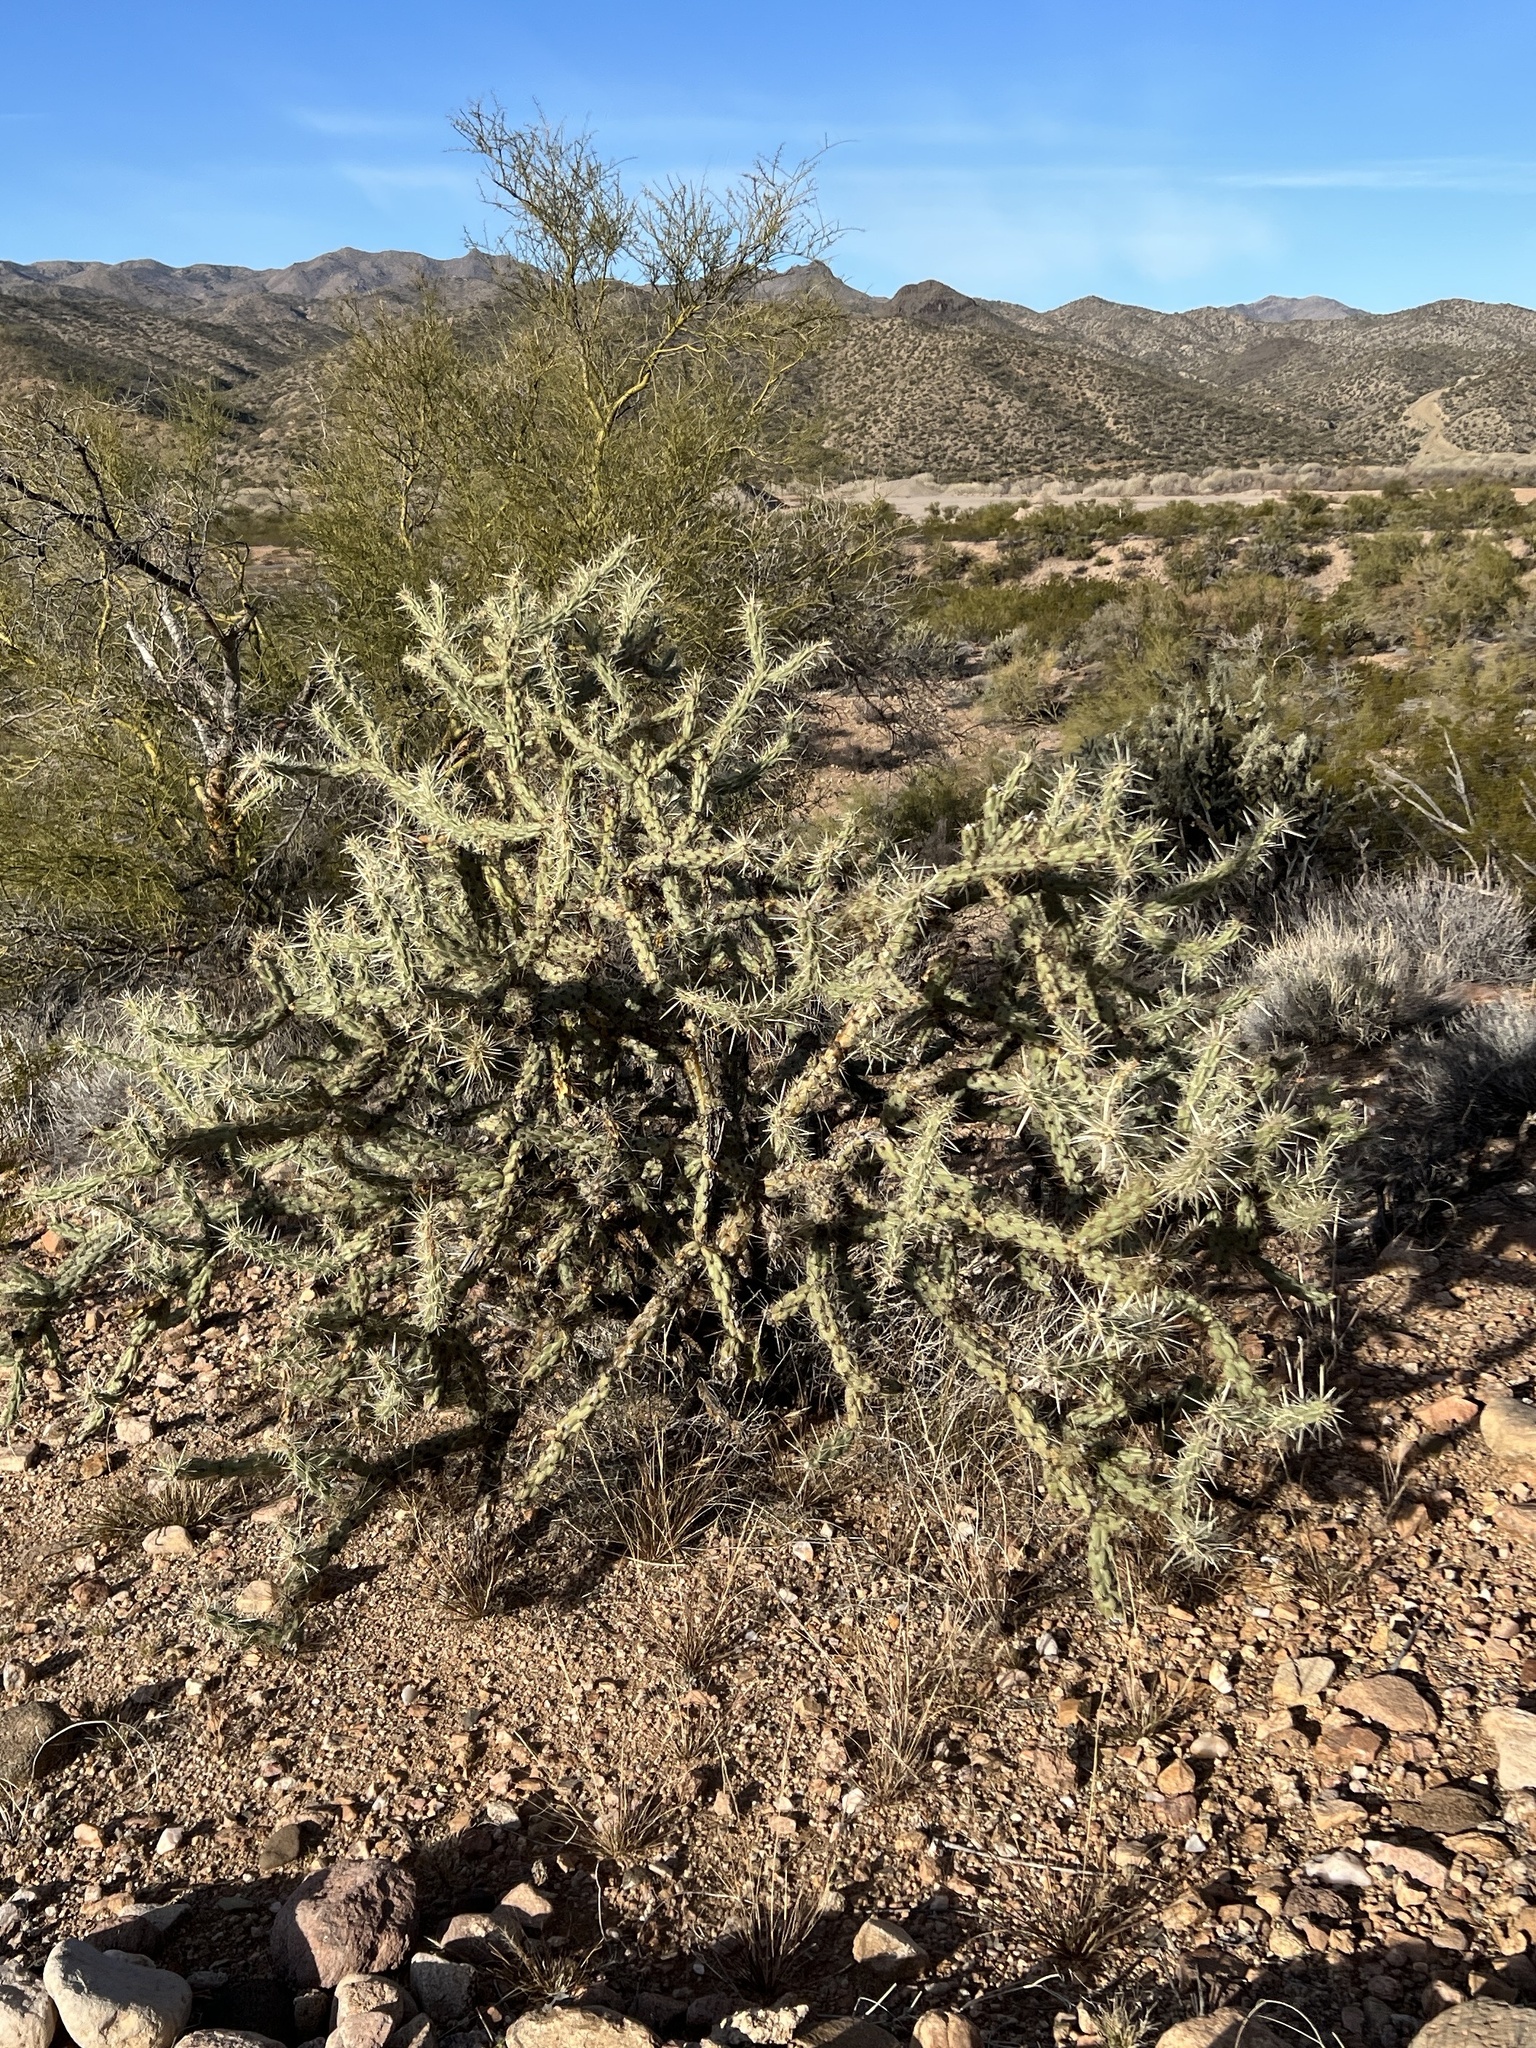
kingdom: Plantae
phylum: Tracheophyta
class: Magnoliopsida
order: Caryophyllales
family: Cactaceae
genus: Cylindropuntia
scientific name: Cylindropuntia acanthocarpa
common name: Buckhorn cholla
